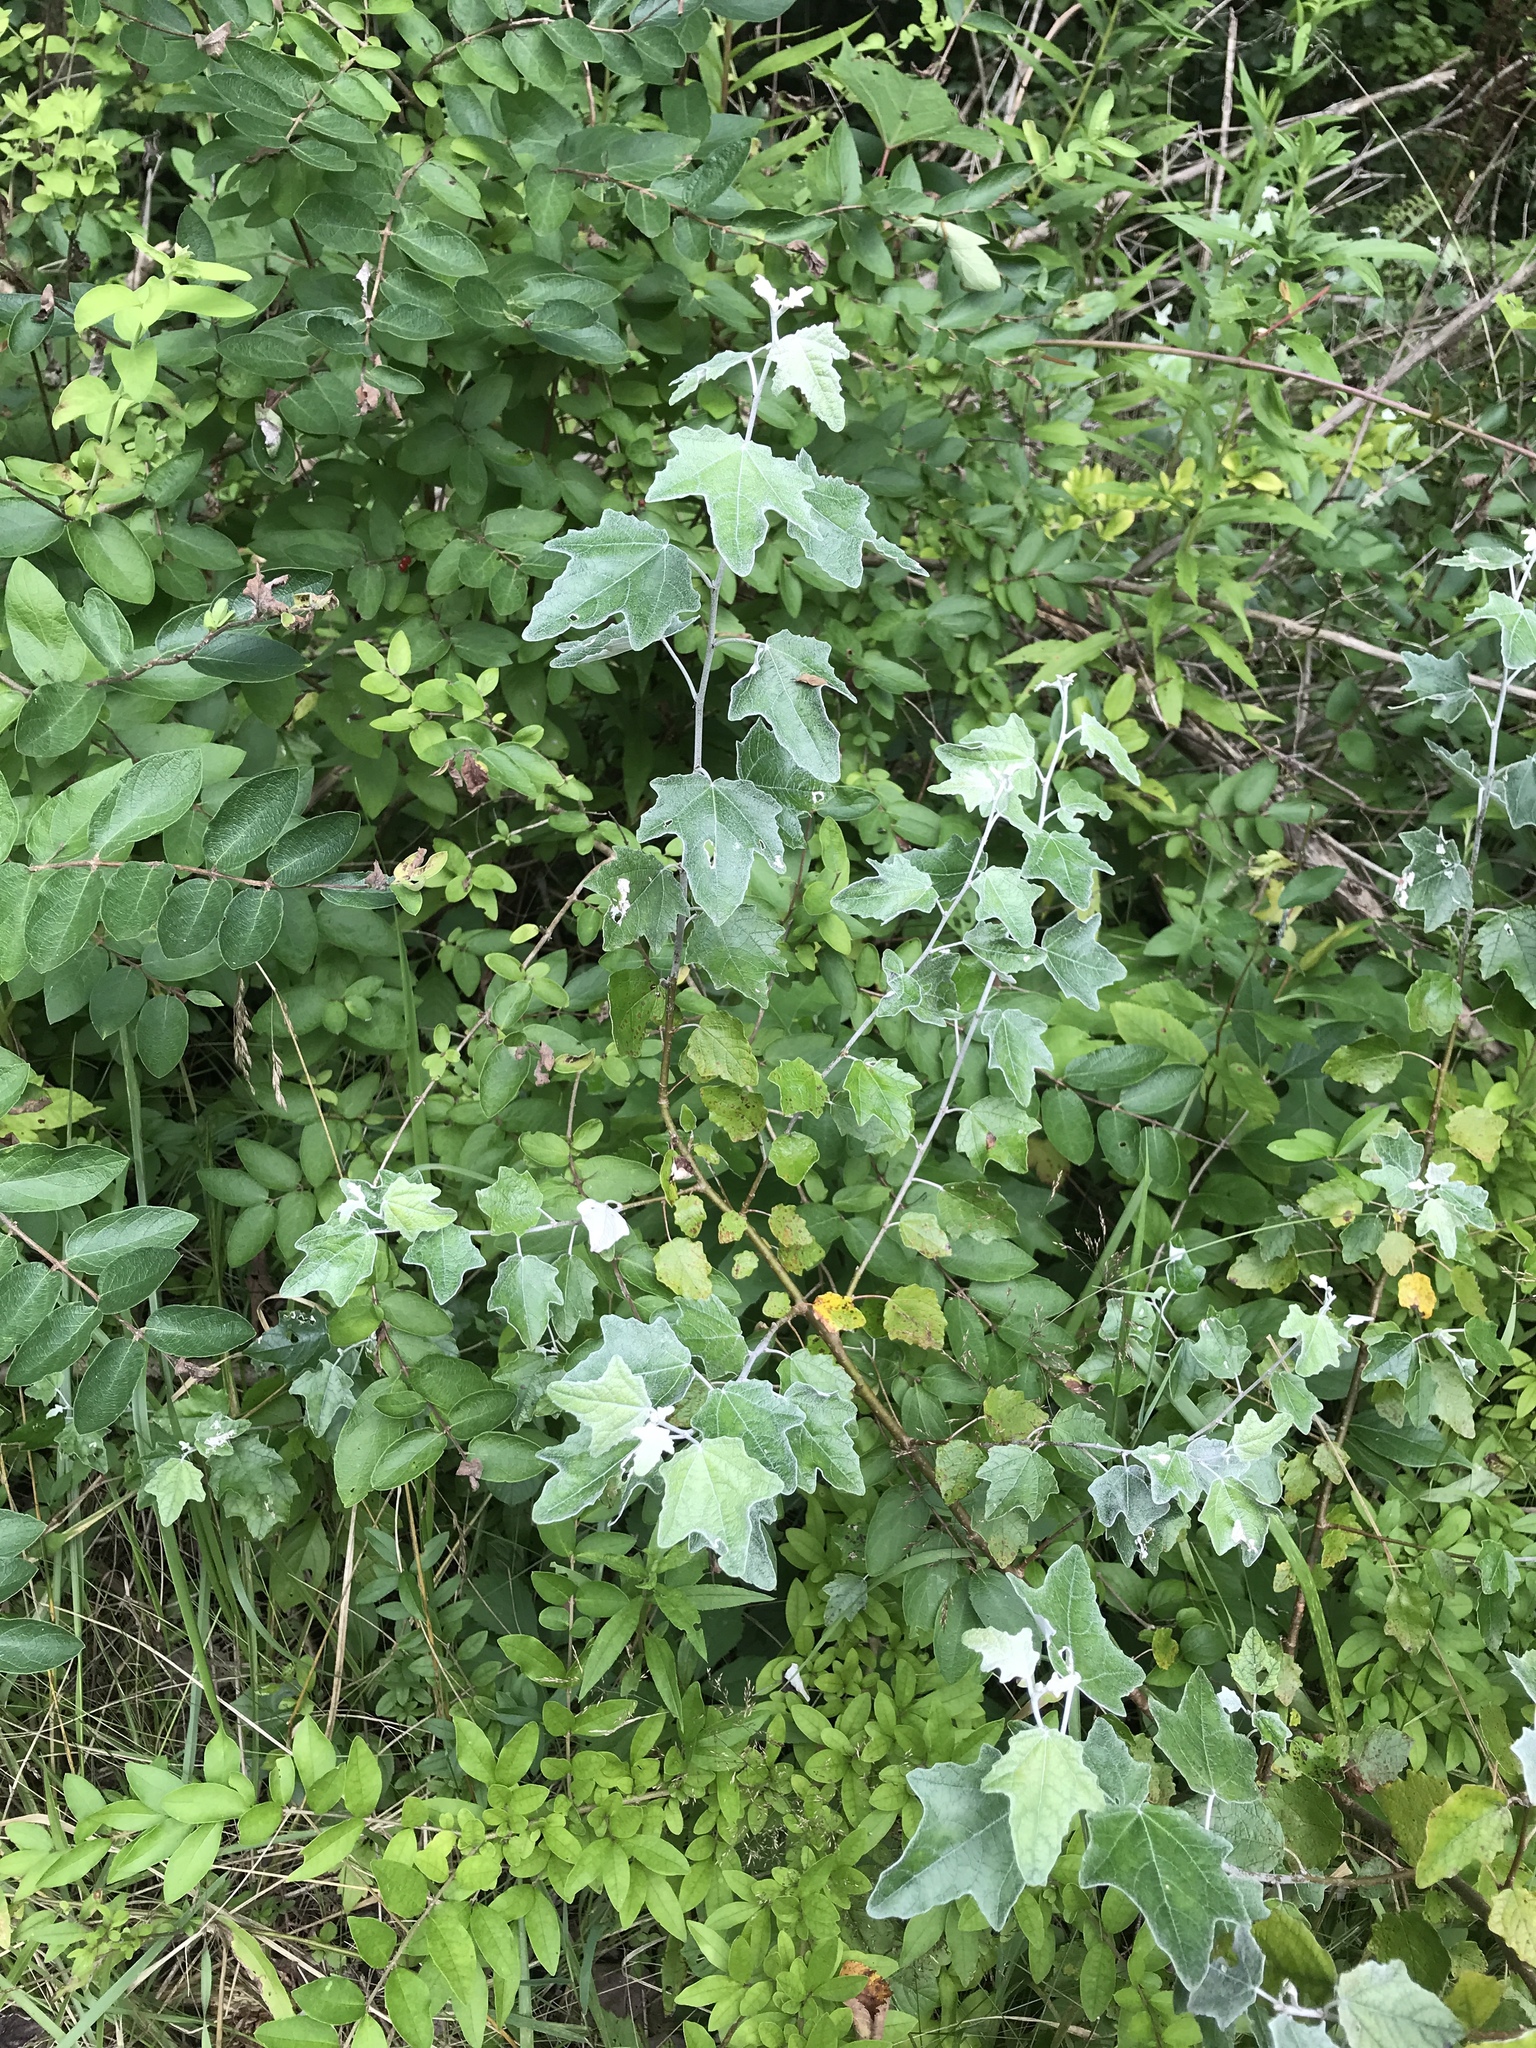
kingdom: Plantae
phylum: Tracheophyta
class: Magnoliopsida
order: Malpighiales
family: Salicaceae
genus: Populus
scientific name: Populus alba
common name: White poplar
